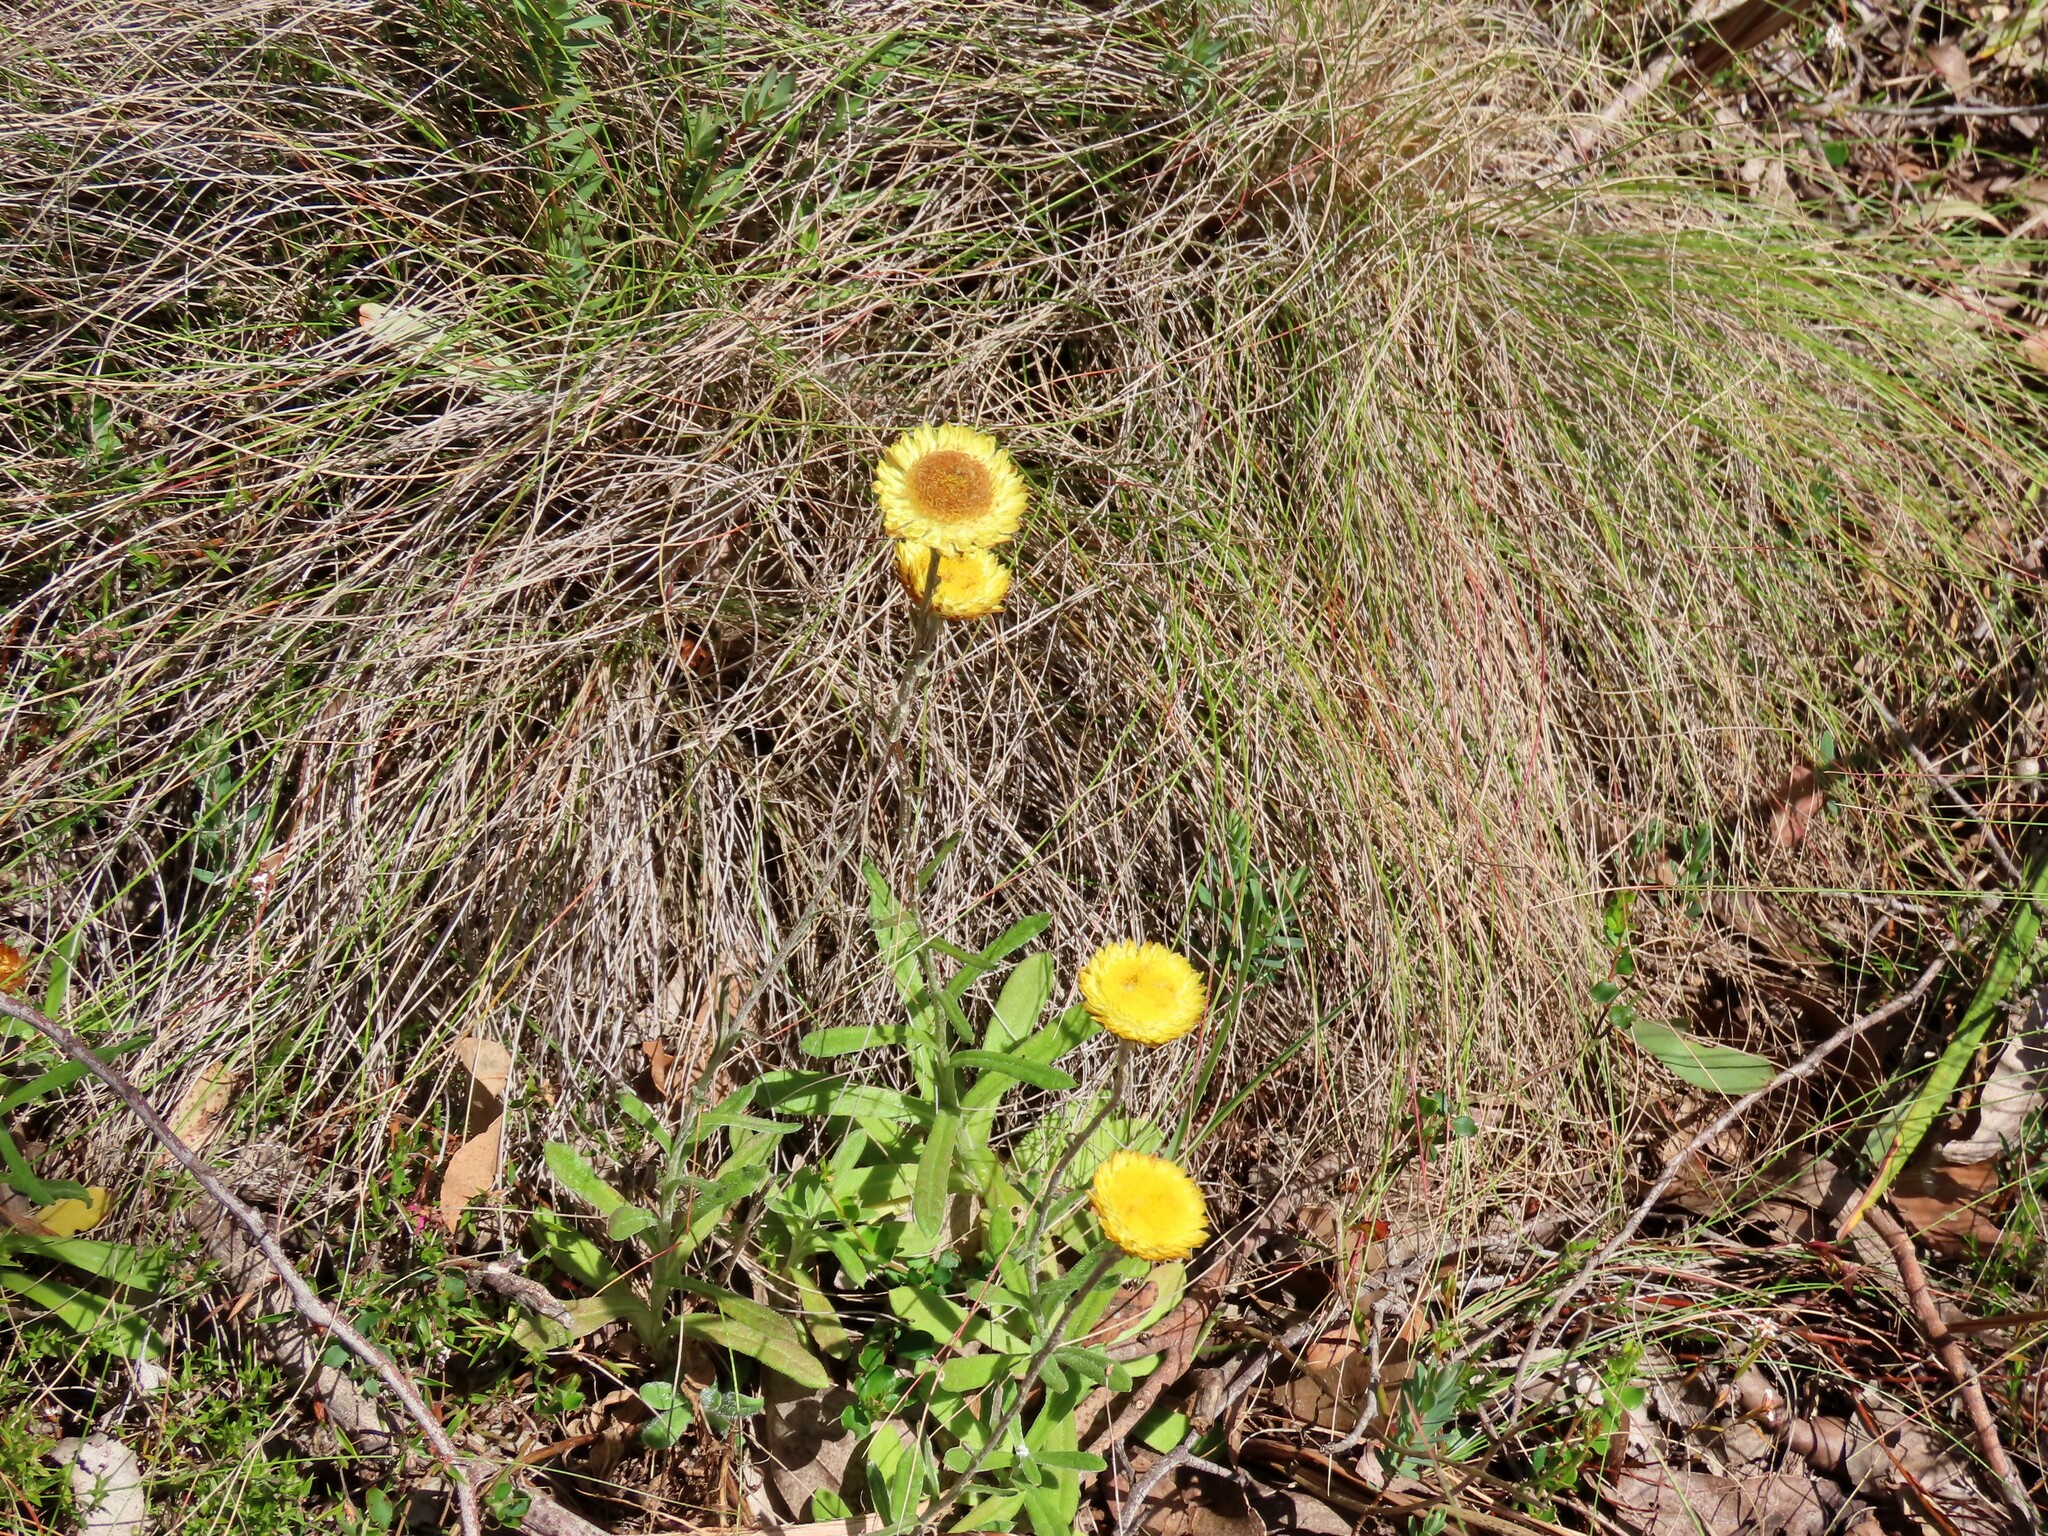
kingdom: Plantae
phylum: Tracheophyta
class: Magnoliopsida
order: Asterales
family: Asteraceae
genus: Coronidium
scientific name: Coronidium scorpioides
